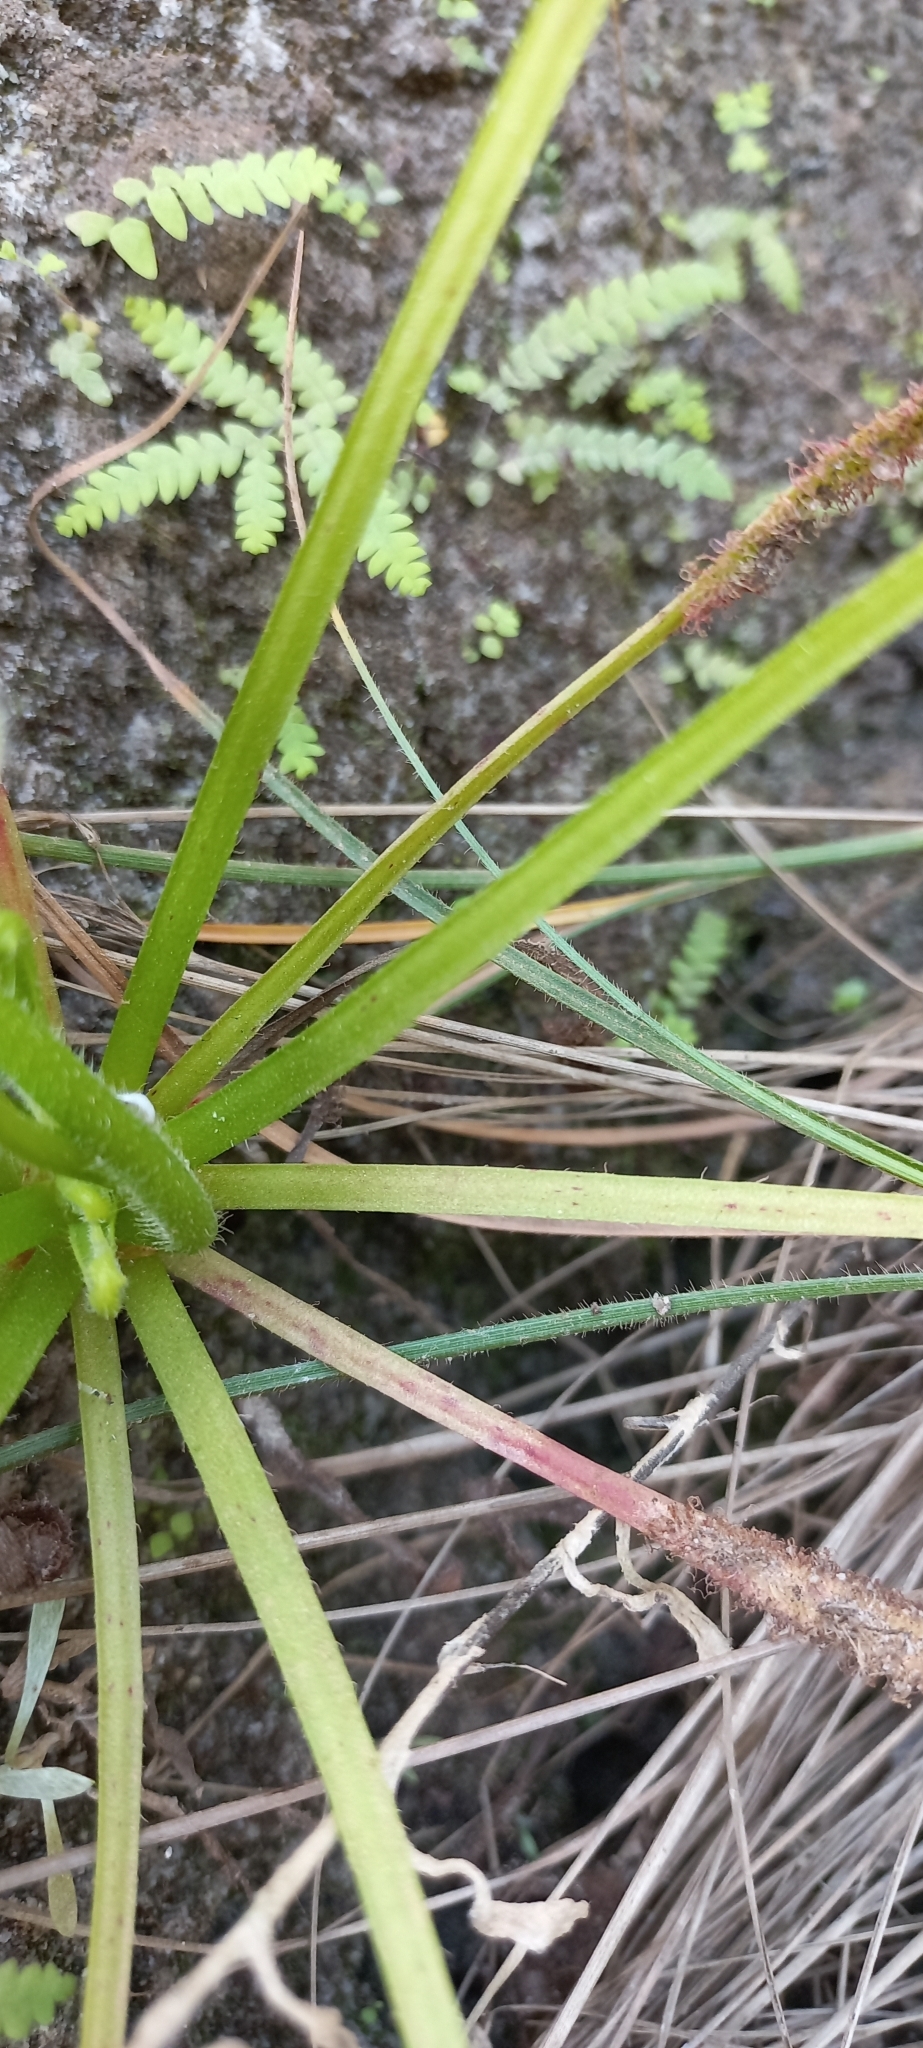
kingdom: Plantae
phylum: Tracheophyta
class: Magnoliopsida
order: Caryophyllales
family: Droseraceae
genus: Drosera
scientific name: Drosera capensis
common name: Cape sundew
